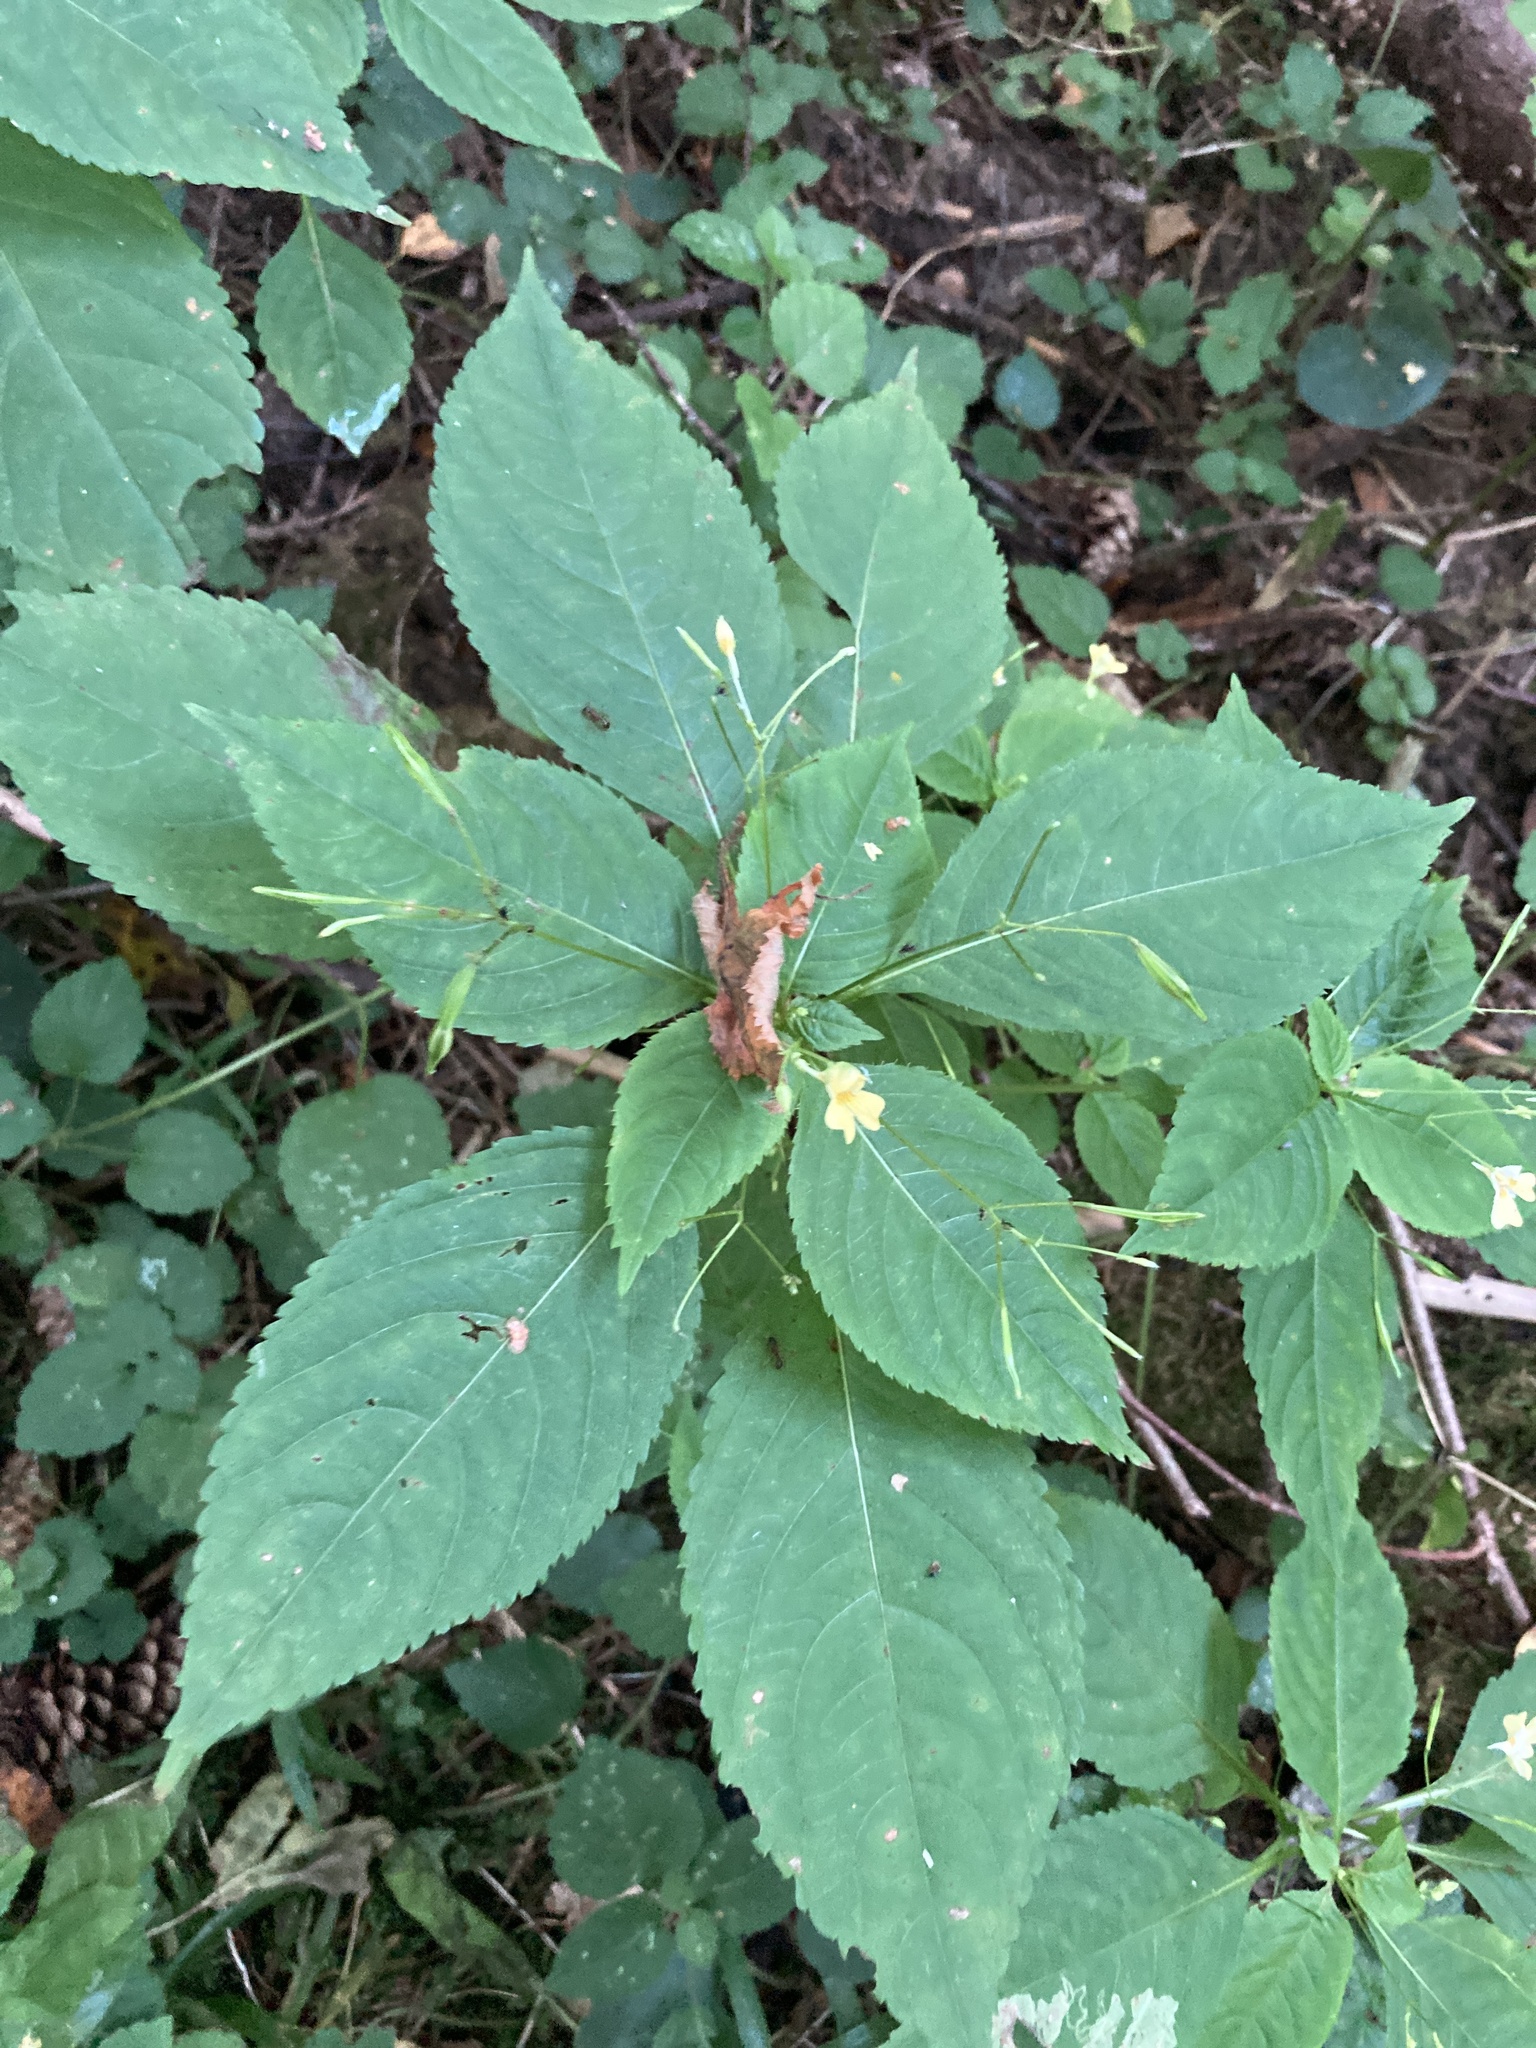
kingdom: Plantae
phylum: Tracheophyta
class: Magnoliopsida
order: Ericales
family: Balsaminaceae
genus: Impatiens
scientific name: Impatiens parviflora
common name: Small balsam
